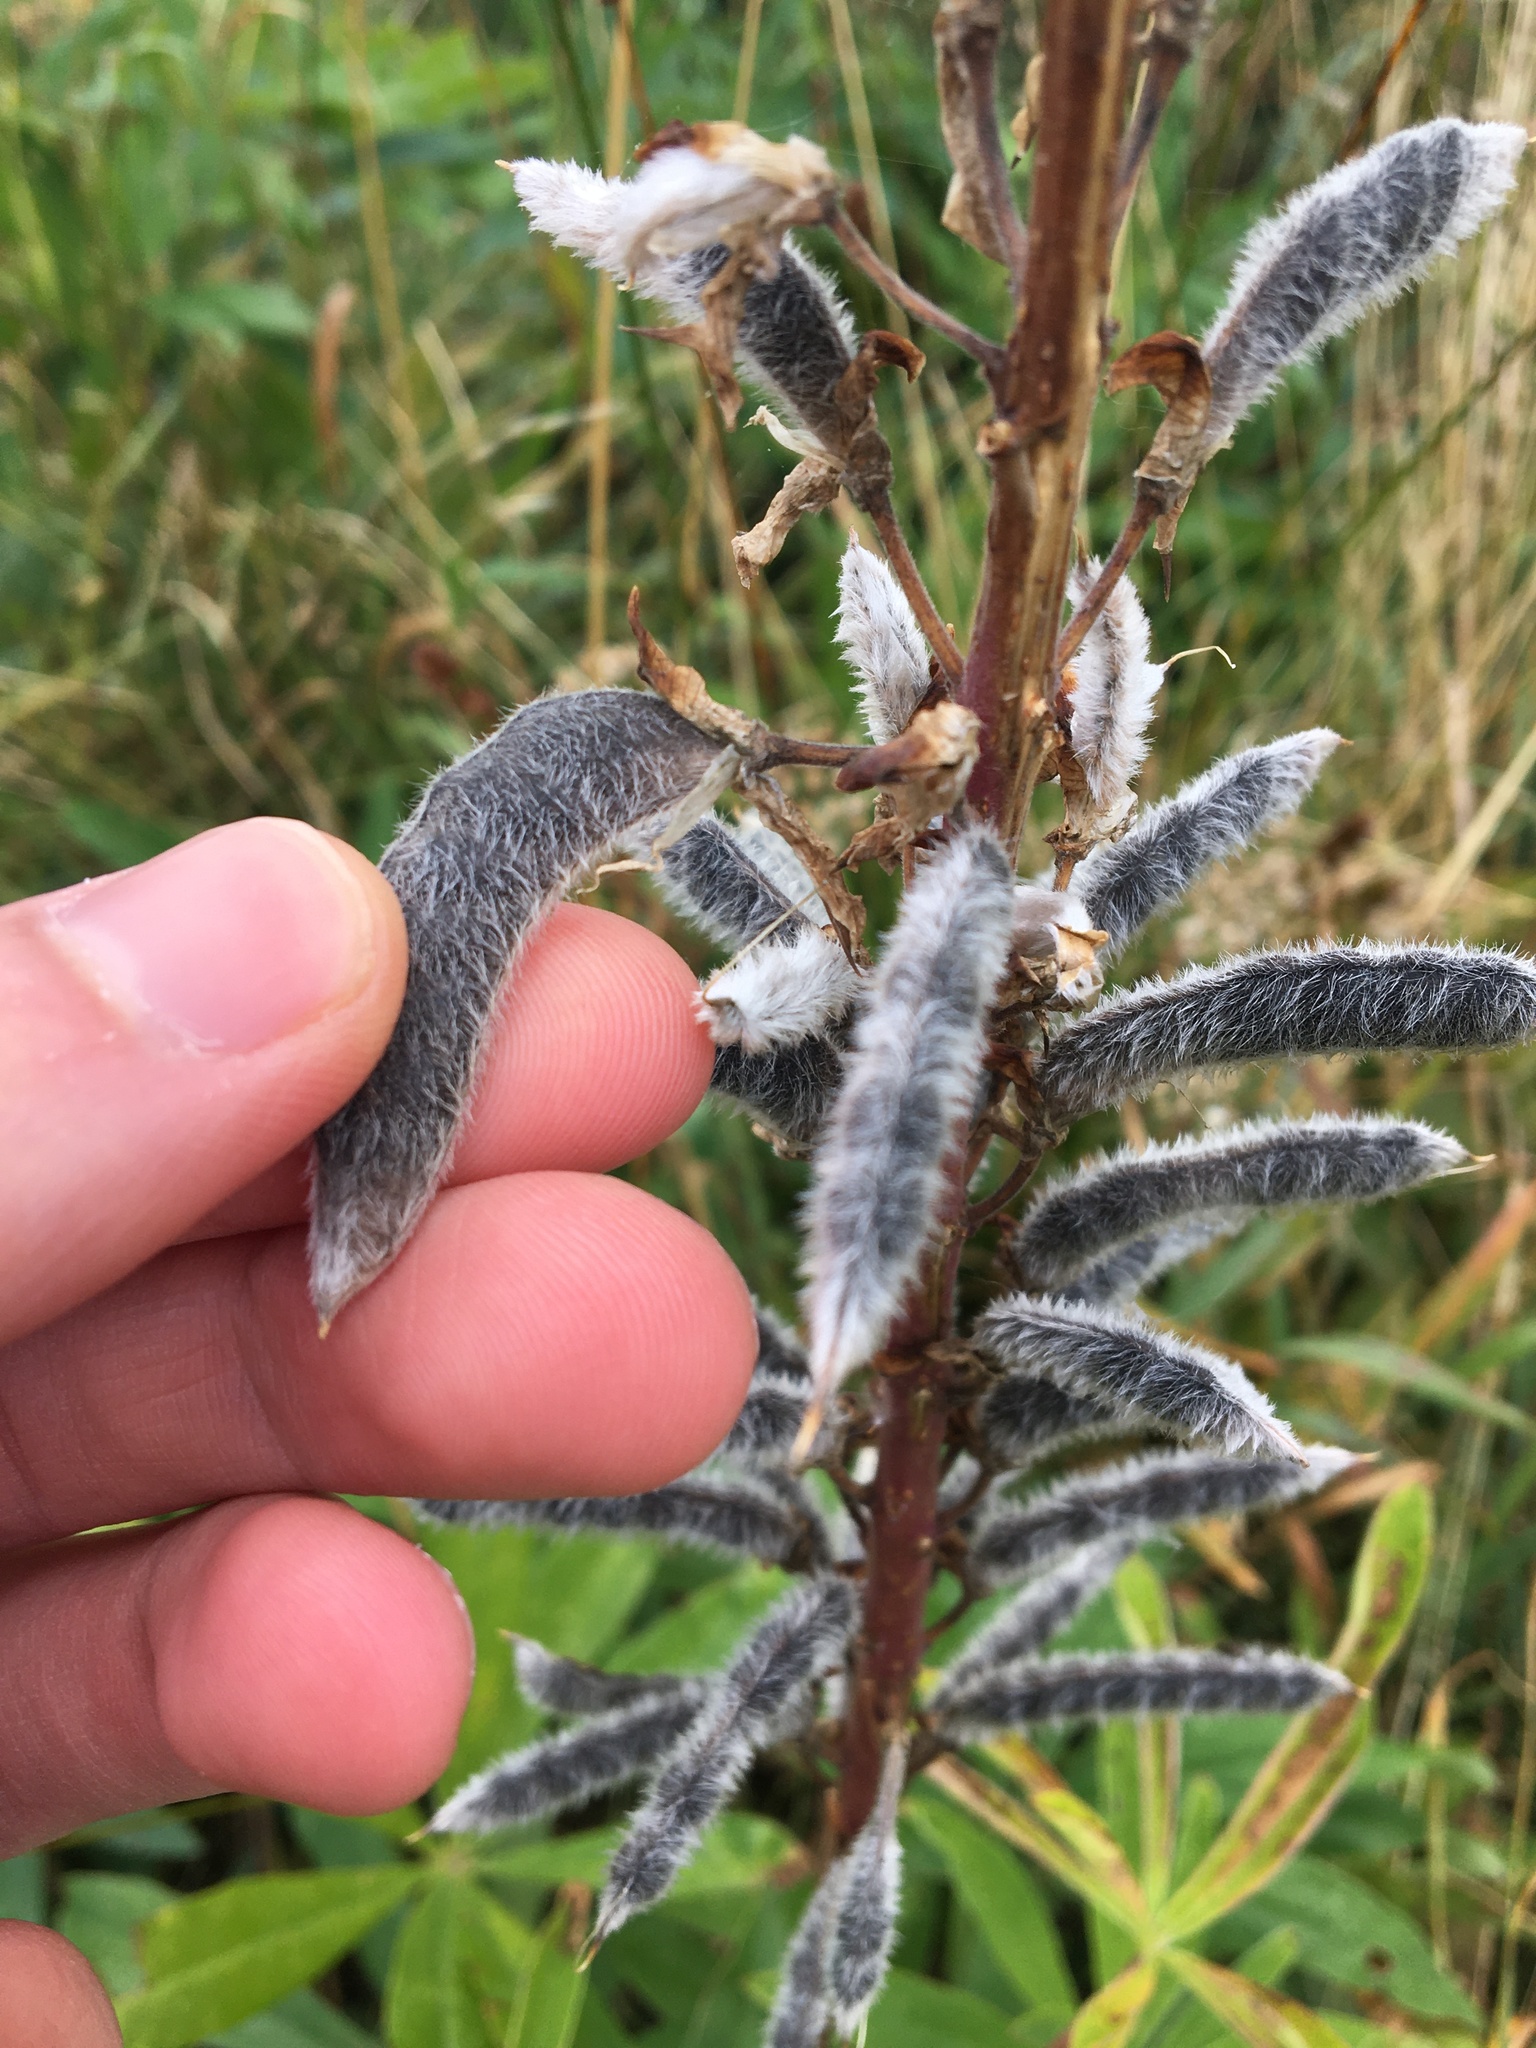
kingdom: Plantae
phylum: Tracheophyta
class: Magnoliopsida
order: Fabales
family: Fabaceae
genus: Lupinus
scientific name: Lupinus polyphyllus
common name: Garden lupin
